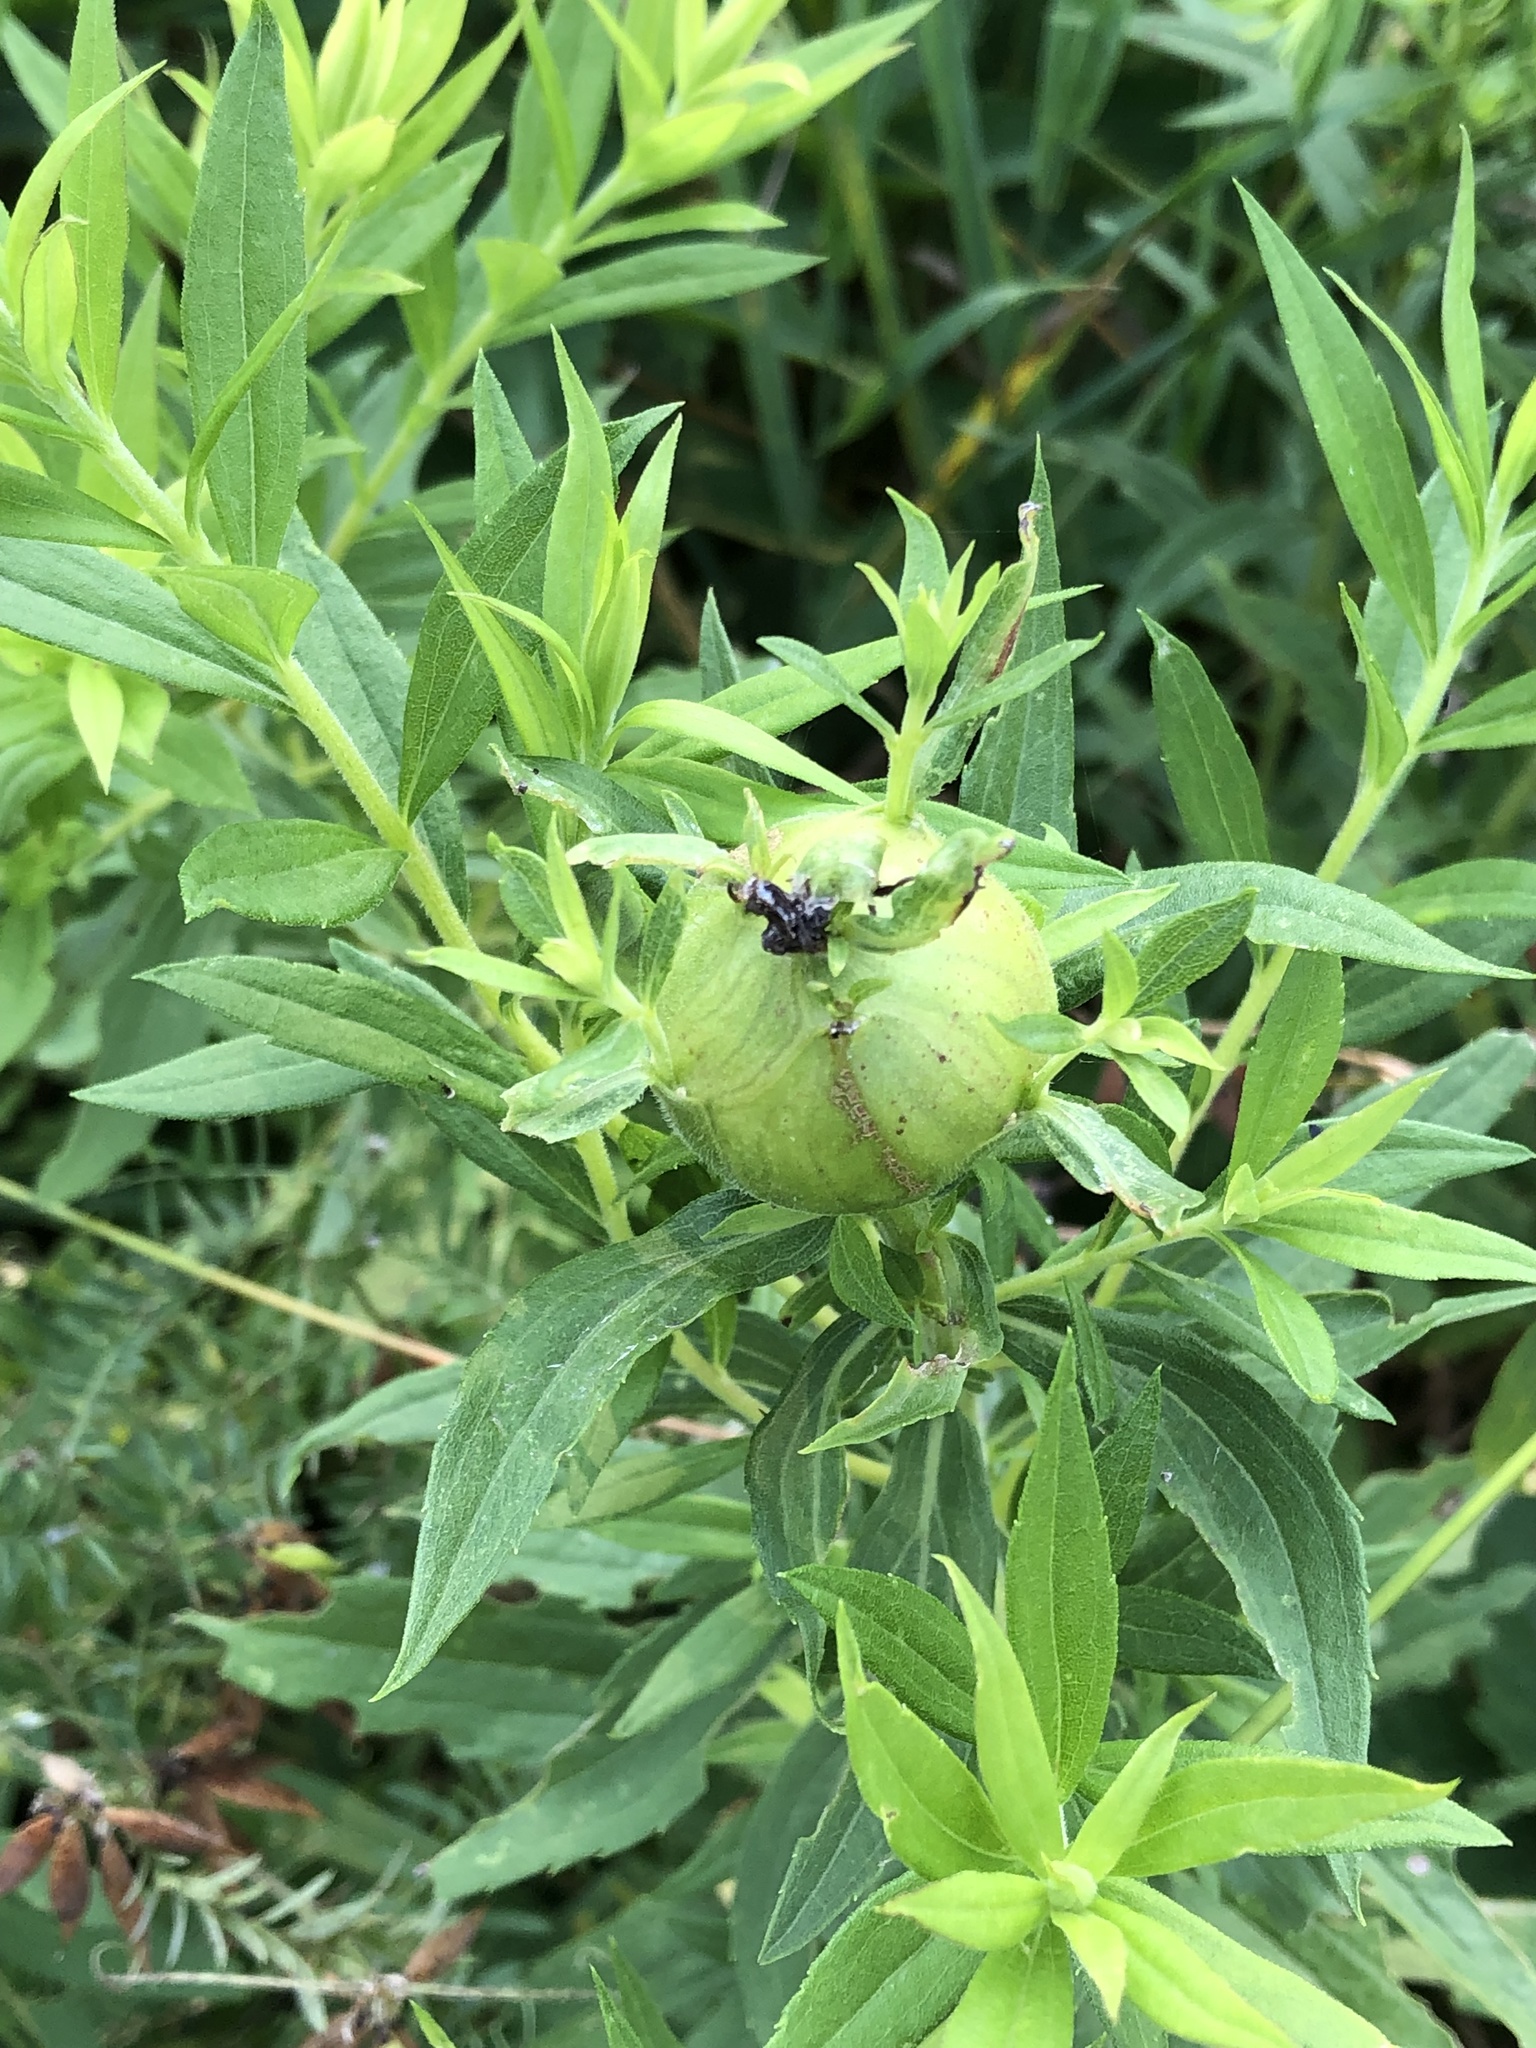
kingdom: Animalia
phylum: Arthropoda
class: Insecta
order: Diptera
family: Tephritidae
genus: Eurosta
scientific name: Eurosta solidaginis
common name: Goldenrod gall fly
